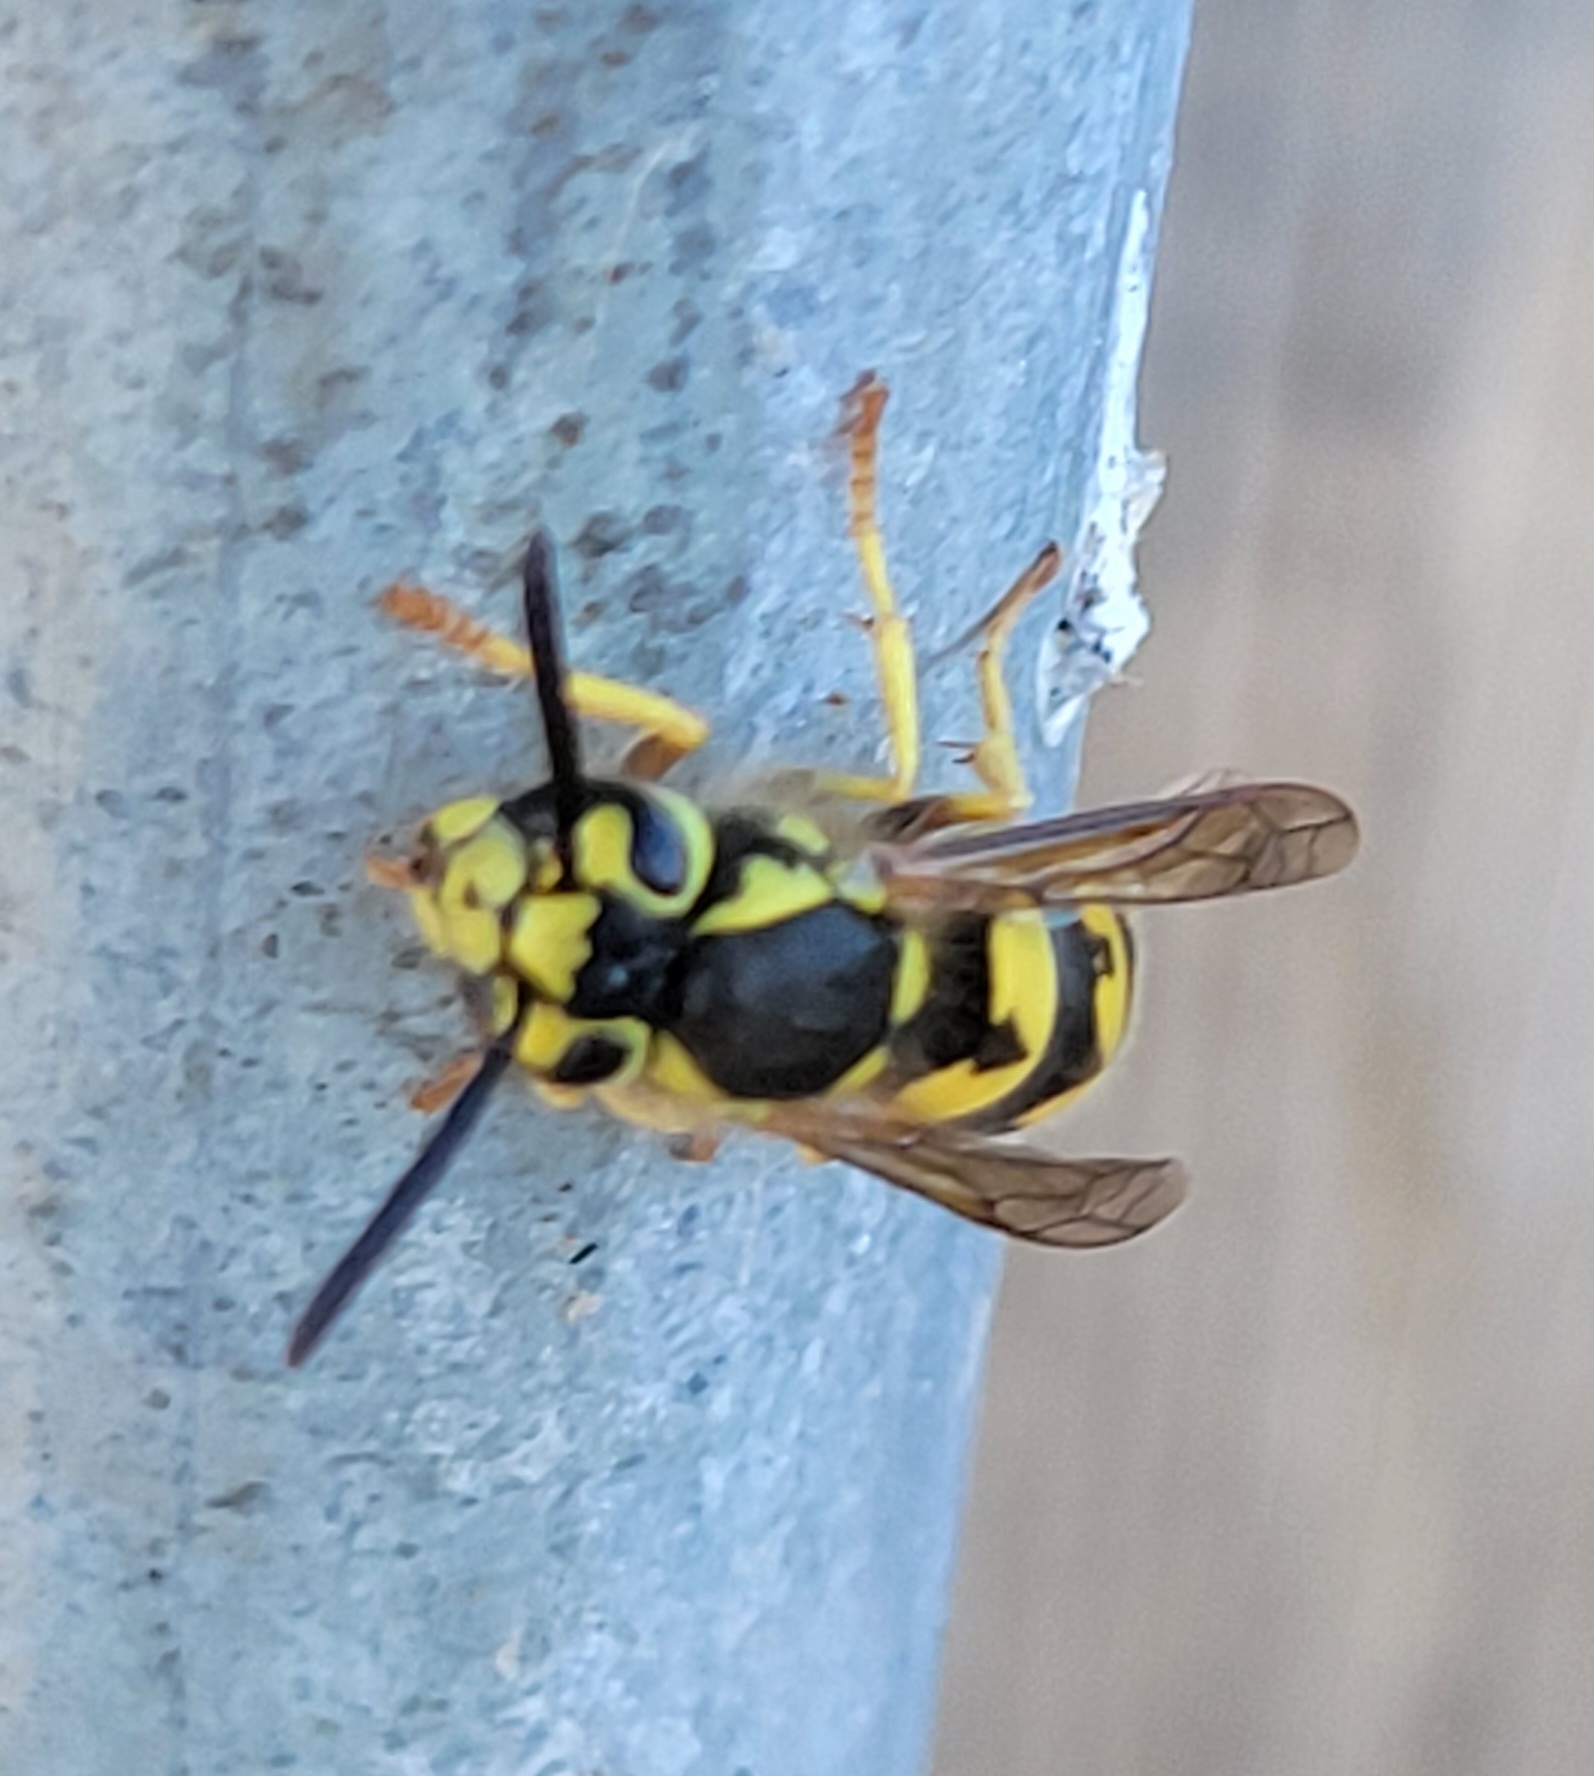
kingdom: Animalia
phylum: Arthropoda
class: Insecta
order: Hymenoptera
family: Vespidae
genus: Vespula
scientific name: Vespula pensylvanica
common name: Western yellowjacket
